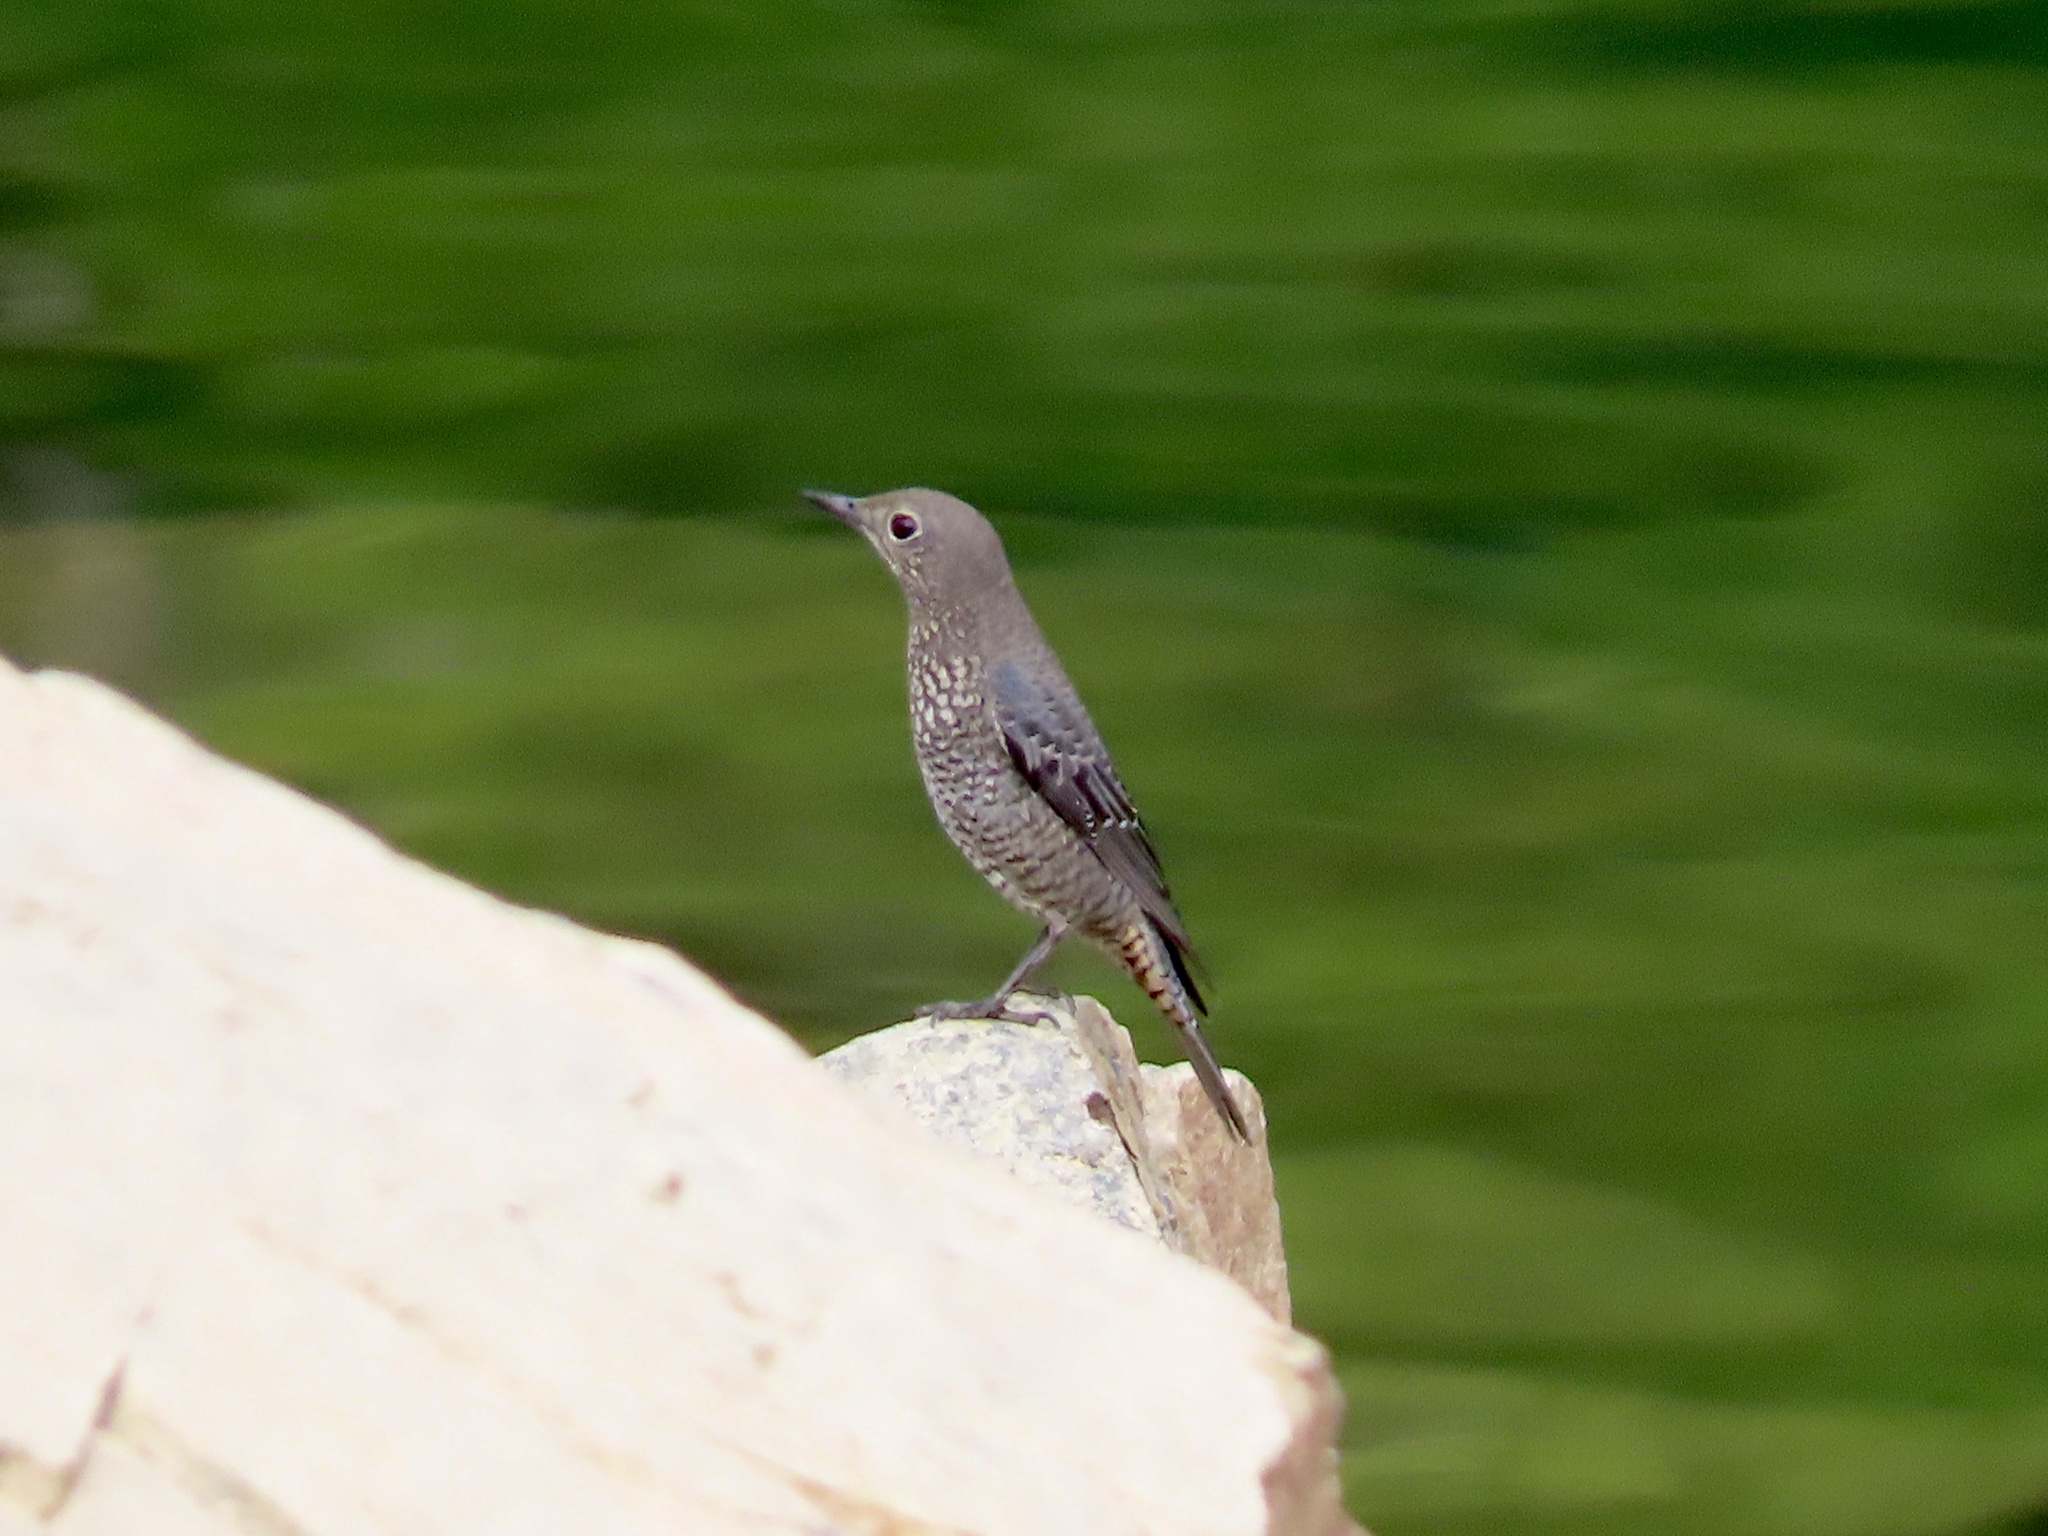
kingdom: Animalia
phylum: Chordata
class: Aves
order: Passeriformes
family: Muscicapidae
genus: Monticola
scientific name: Monticola solitarius
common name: Blue rock thrush
